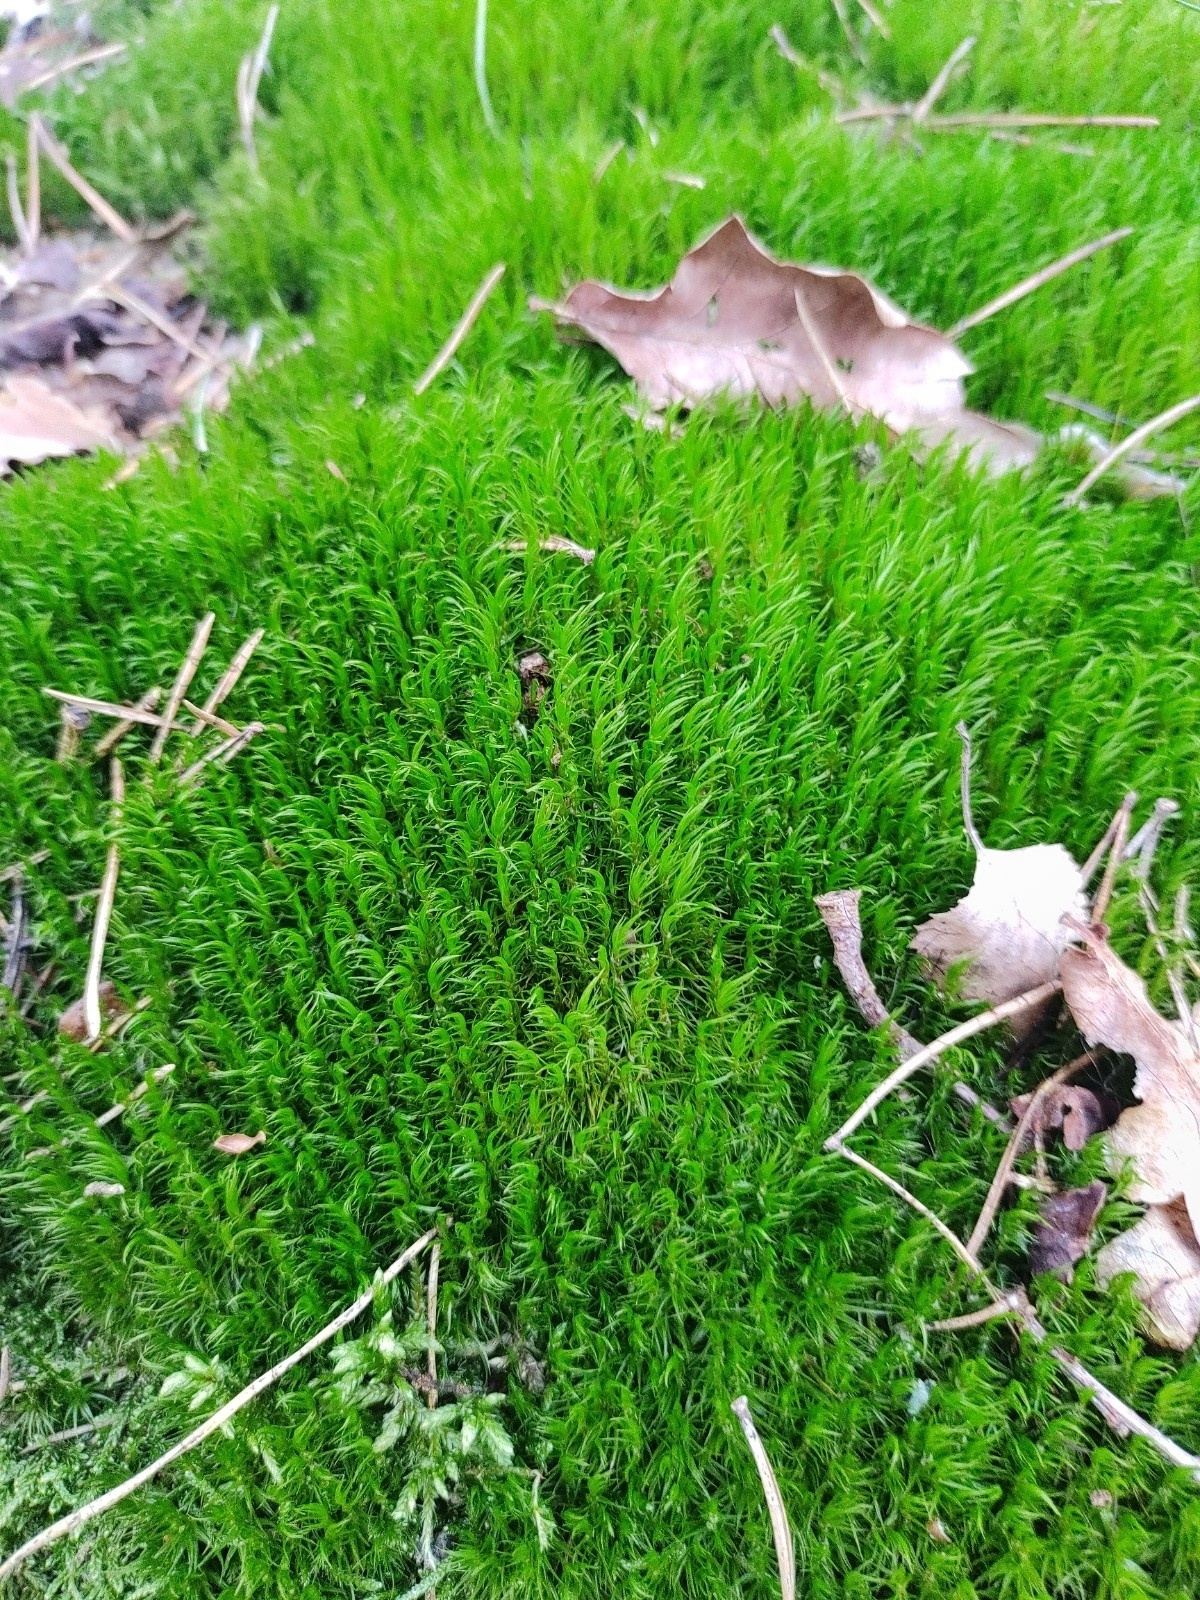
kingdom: Plantae
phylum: Bryophyta
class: Bryopsida
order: Dicranales
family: Dicranaceae
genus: Dicranum
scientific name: Dicranum scoparium
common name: Broom fork-moss
